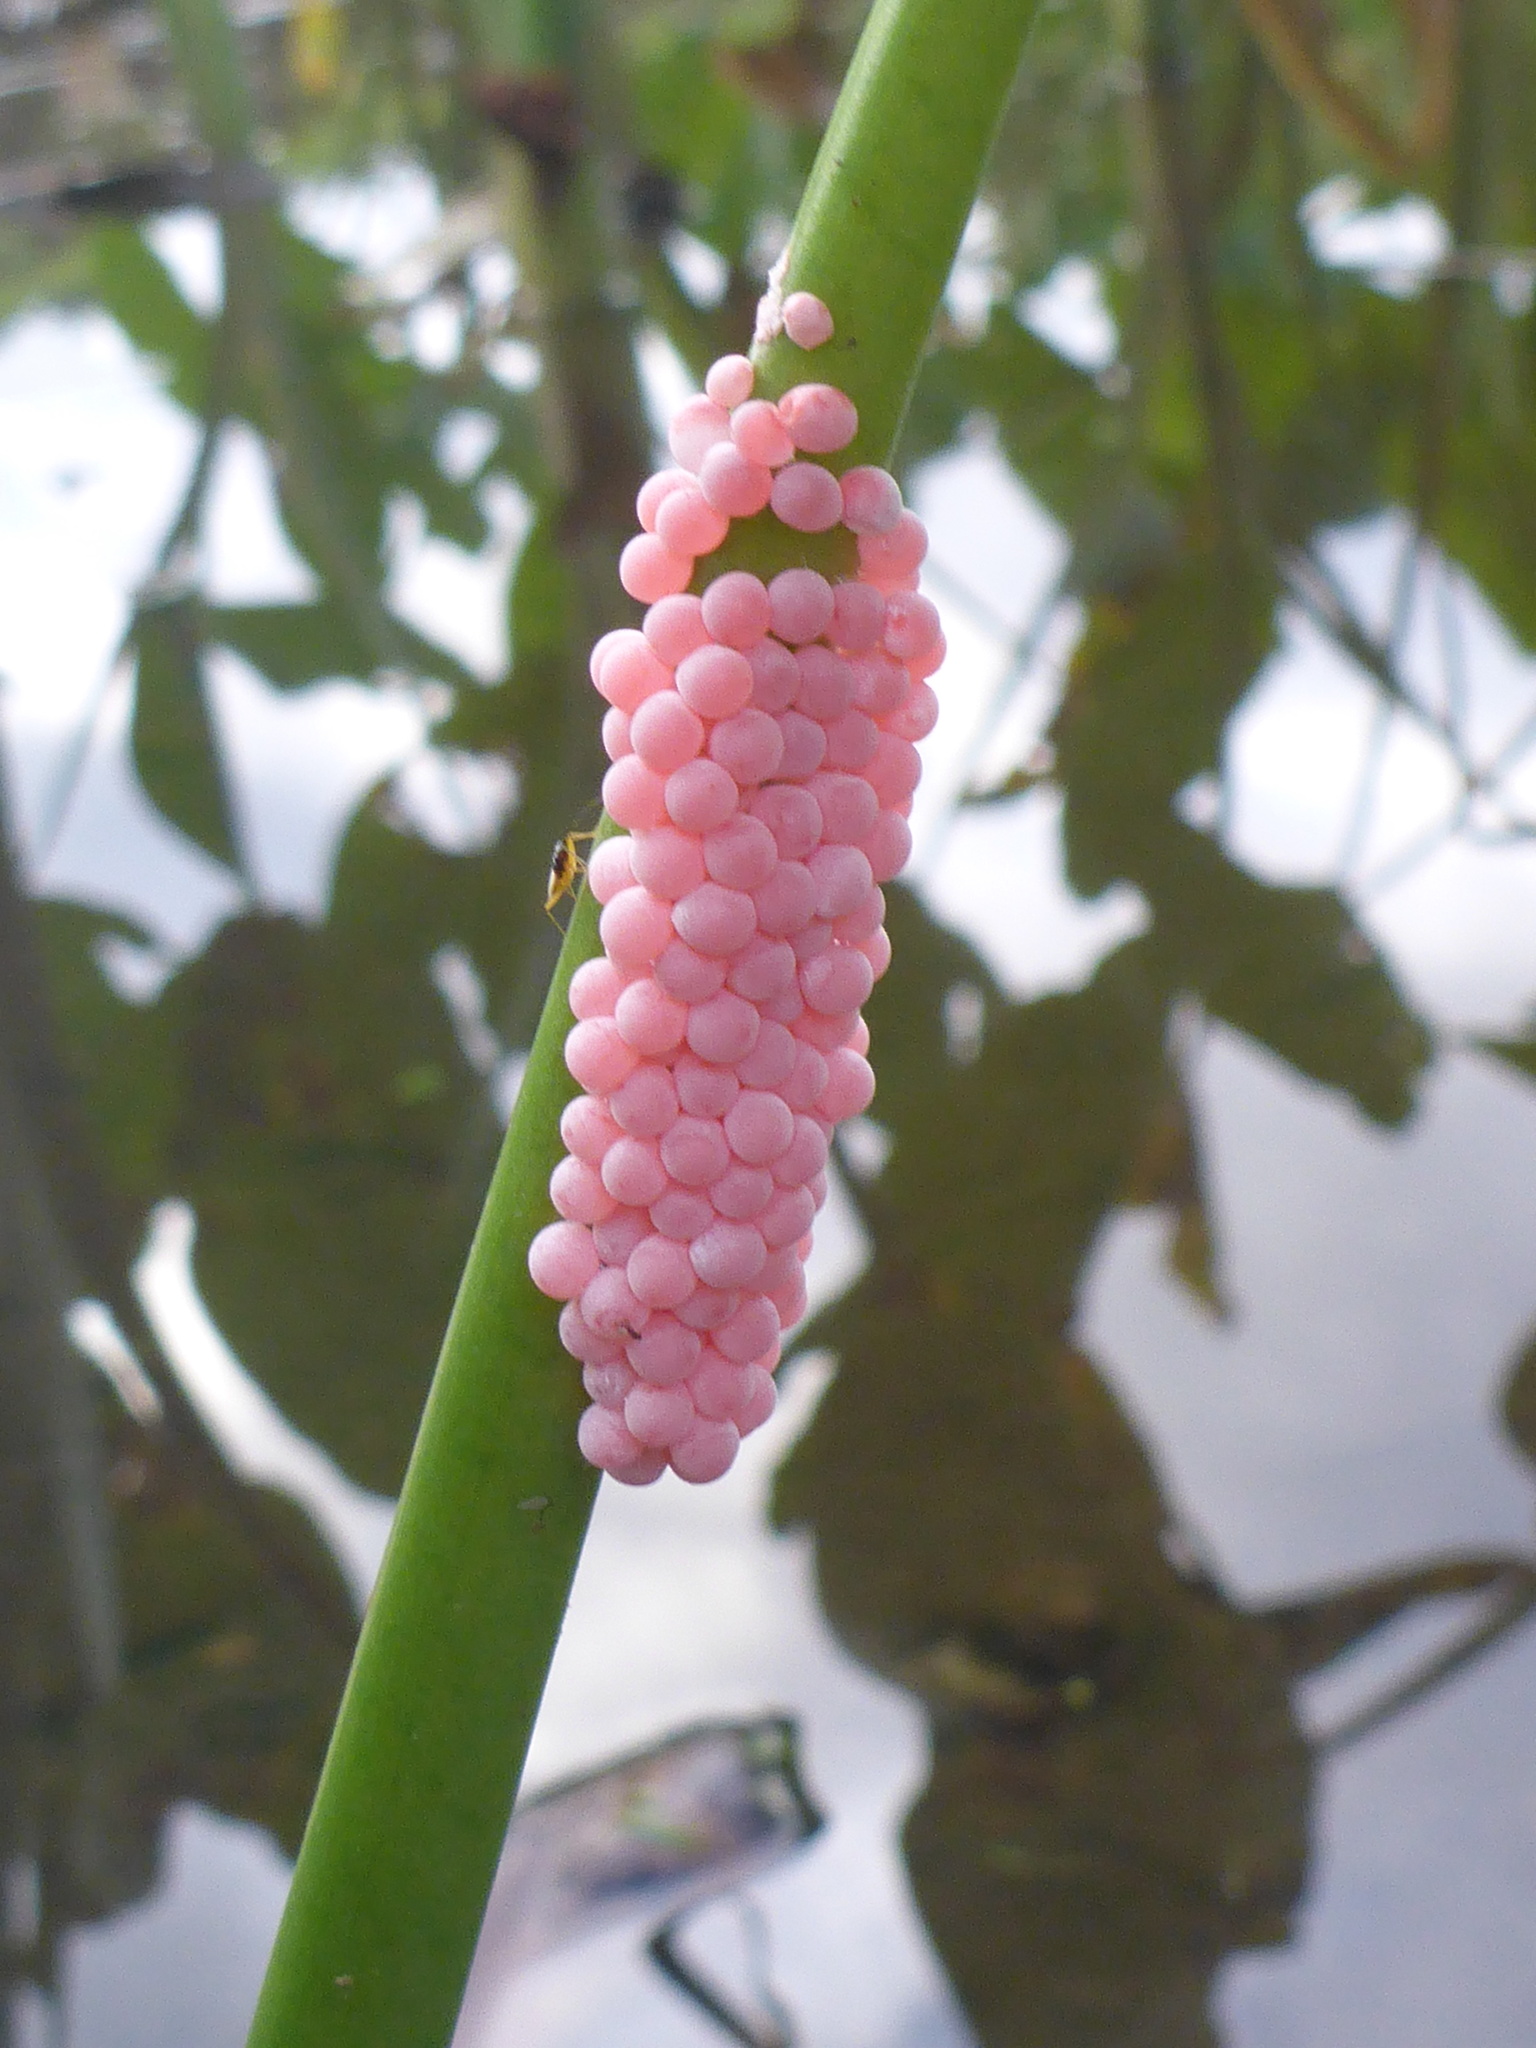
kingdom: Animalia
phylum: Mollusca
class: Gastropoda
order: Architaenioglossa
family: Ampullariidae
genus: Pomacea
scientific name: Pomacea canaliculata
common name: Channeled applesnail
